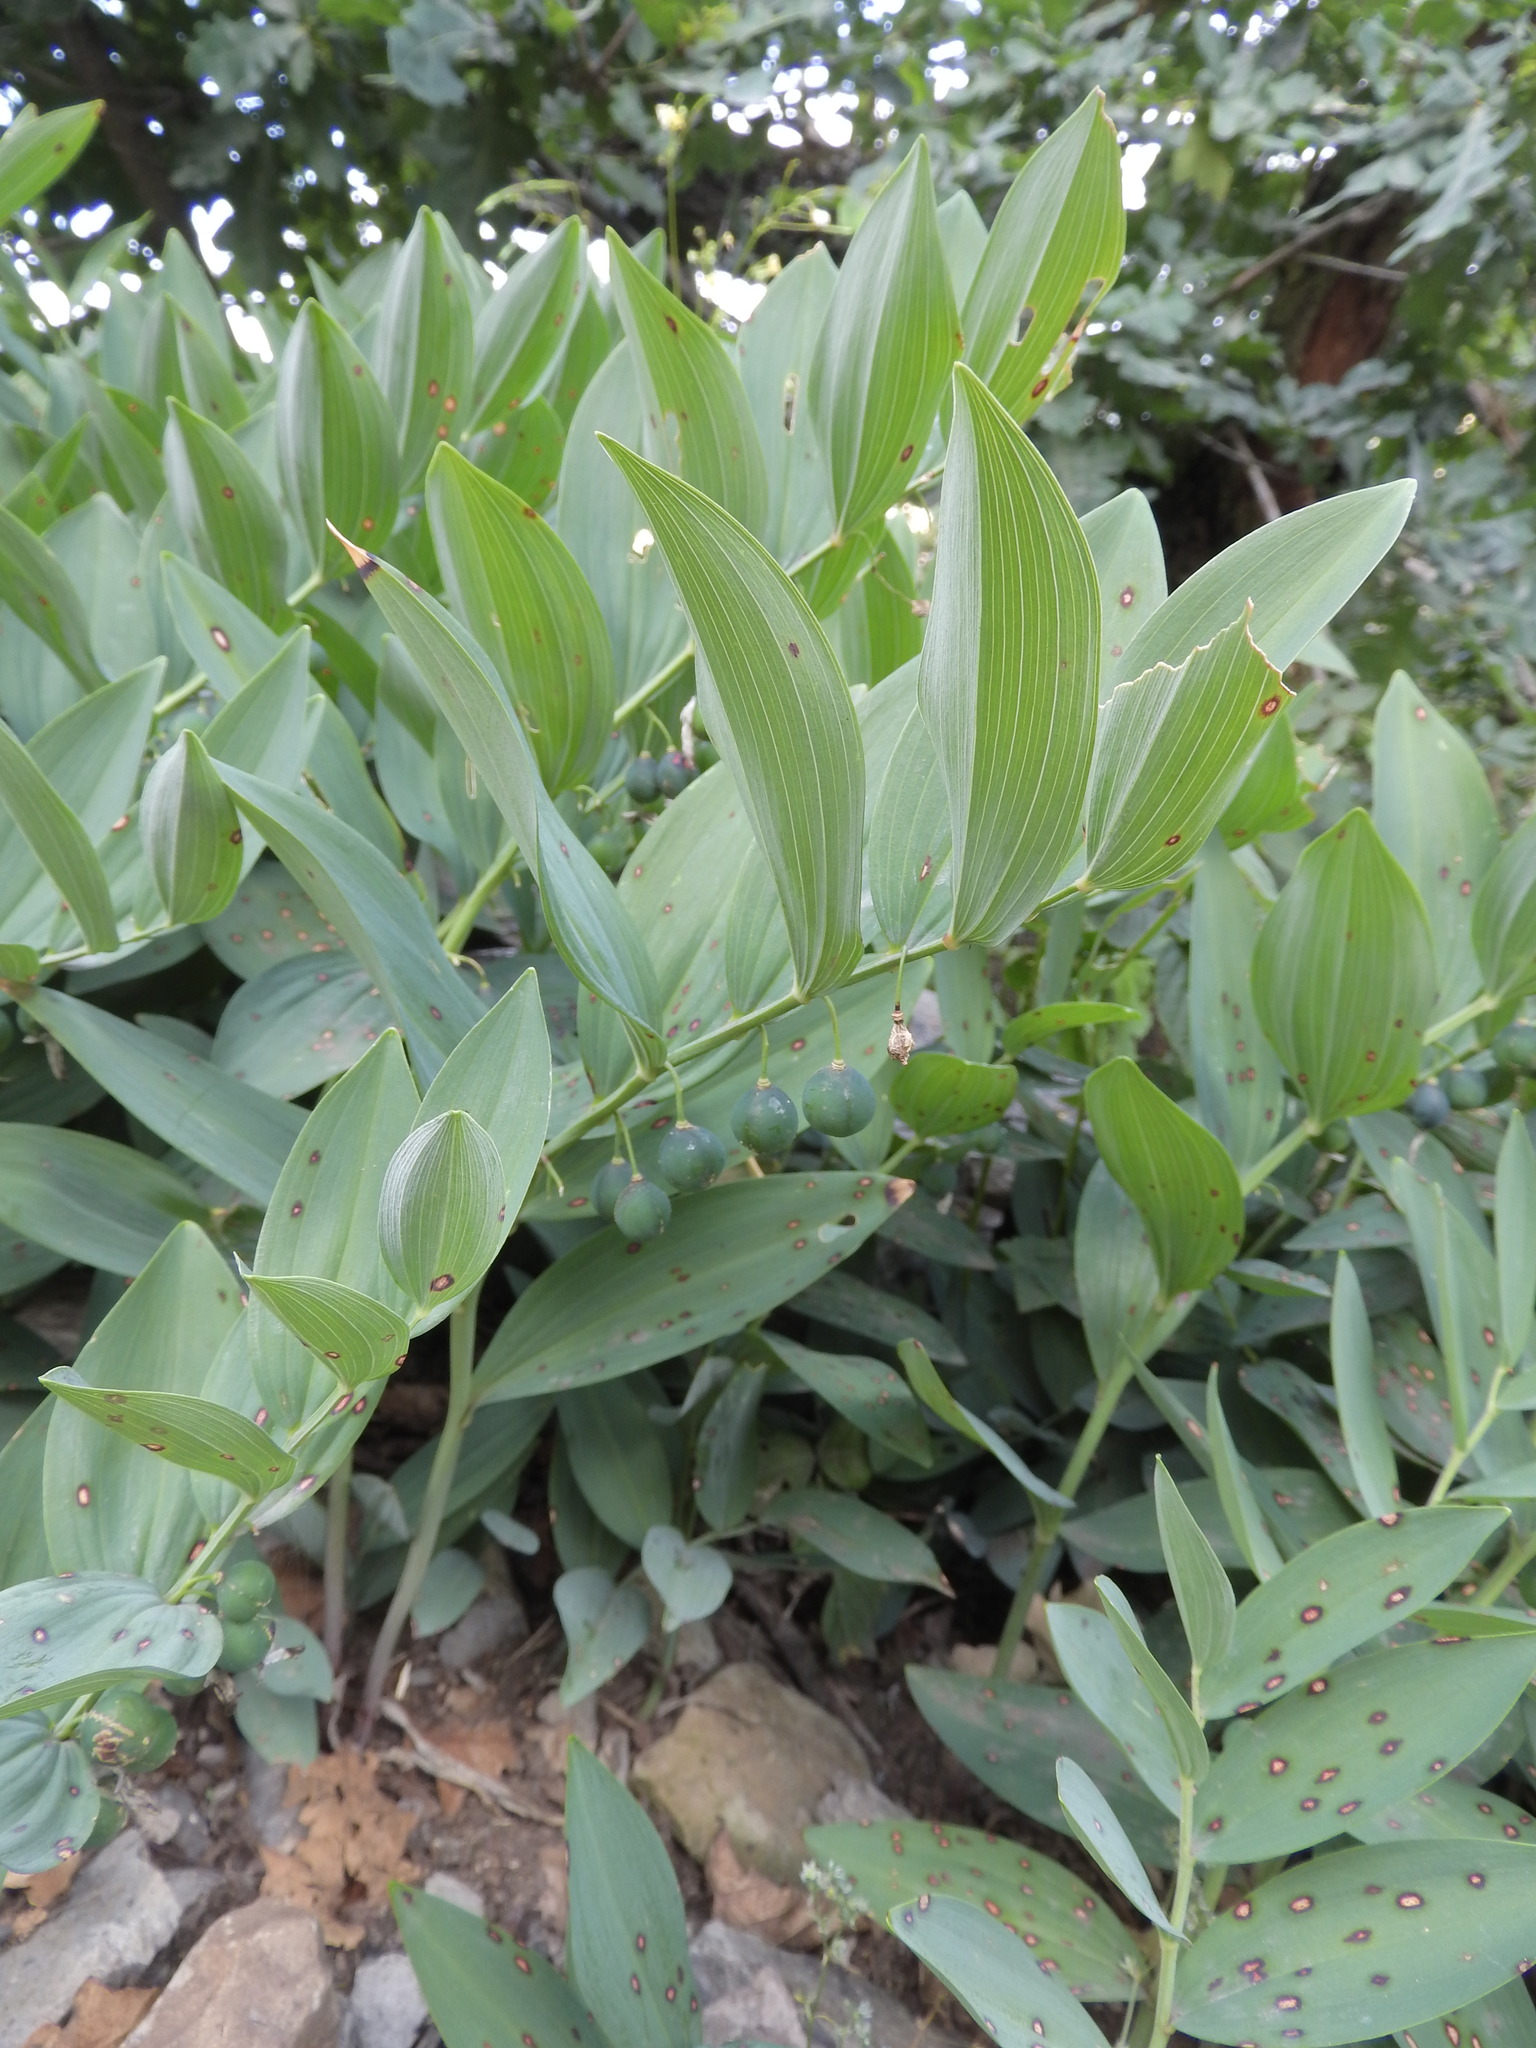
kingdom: Plantae
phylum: Tracheophyta
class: Liliopsida
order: Asparagales
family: Asparagaceae
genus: Polygonatum
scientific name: Polygonatum odoratum
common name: Angular solomon's-seal
